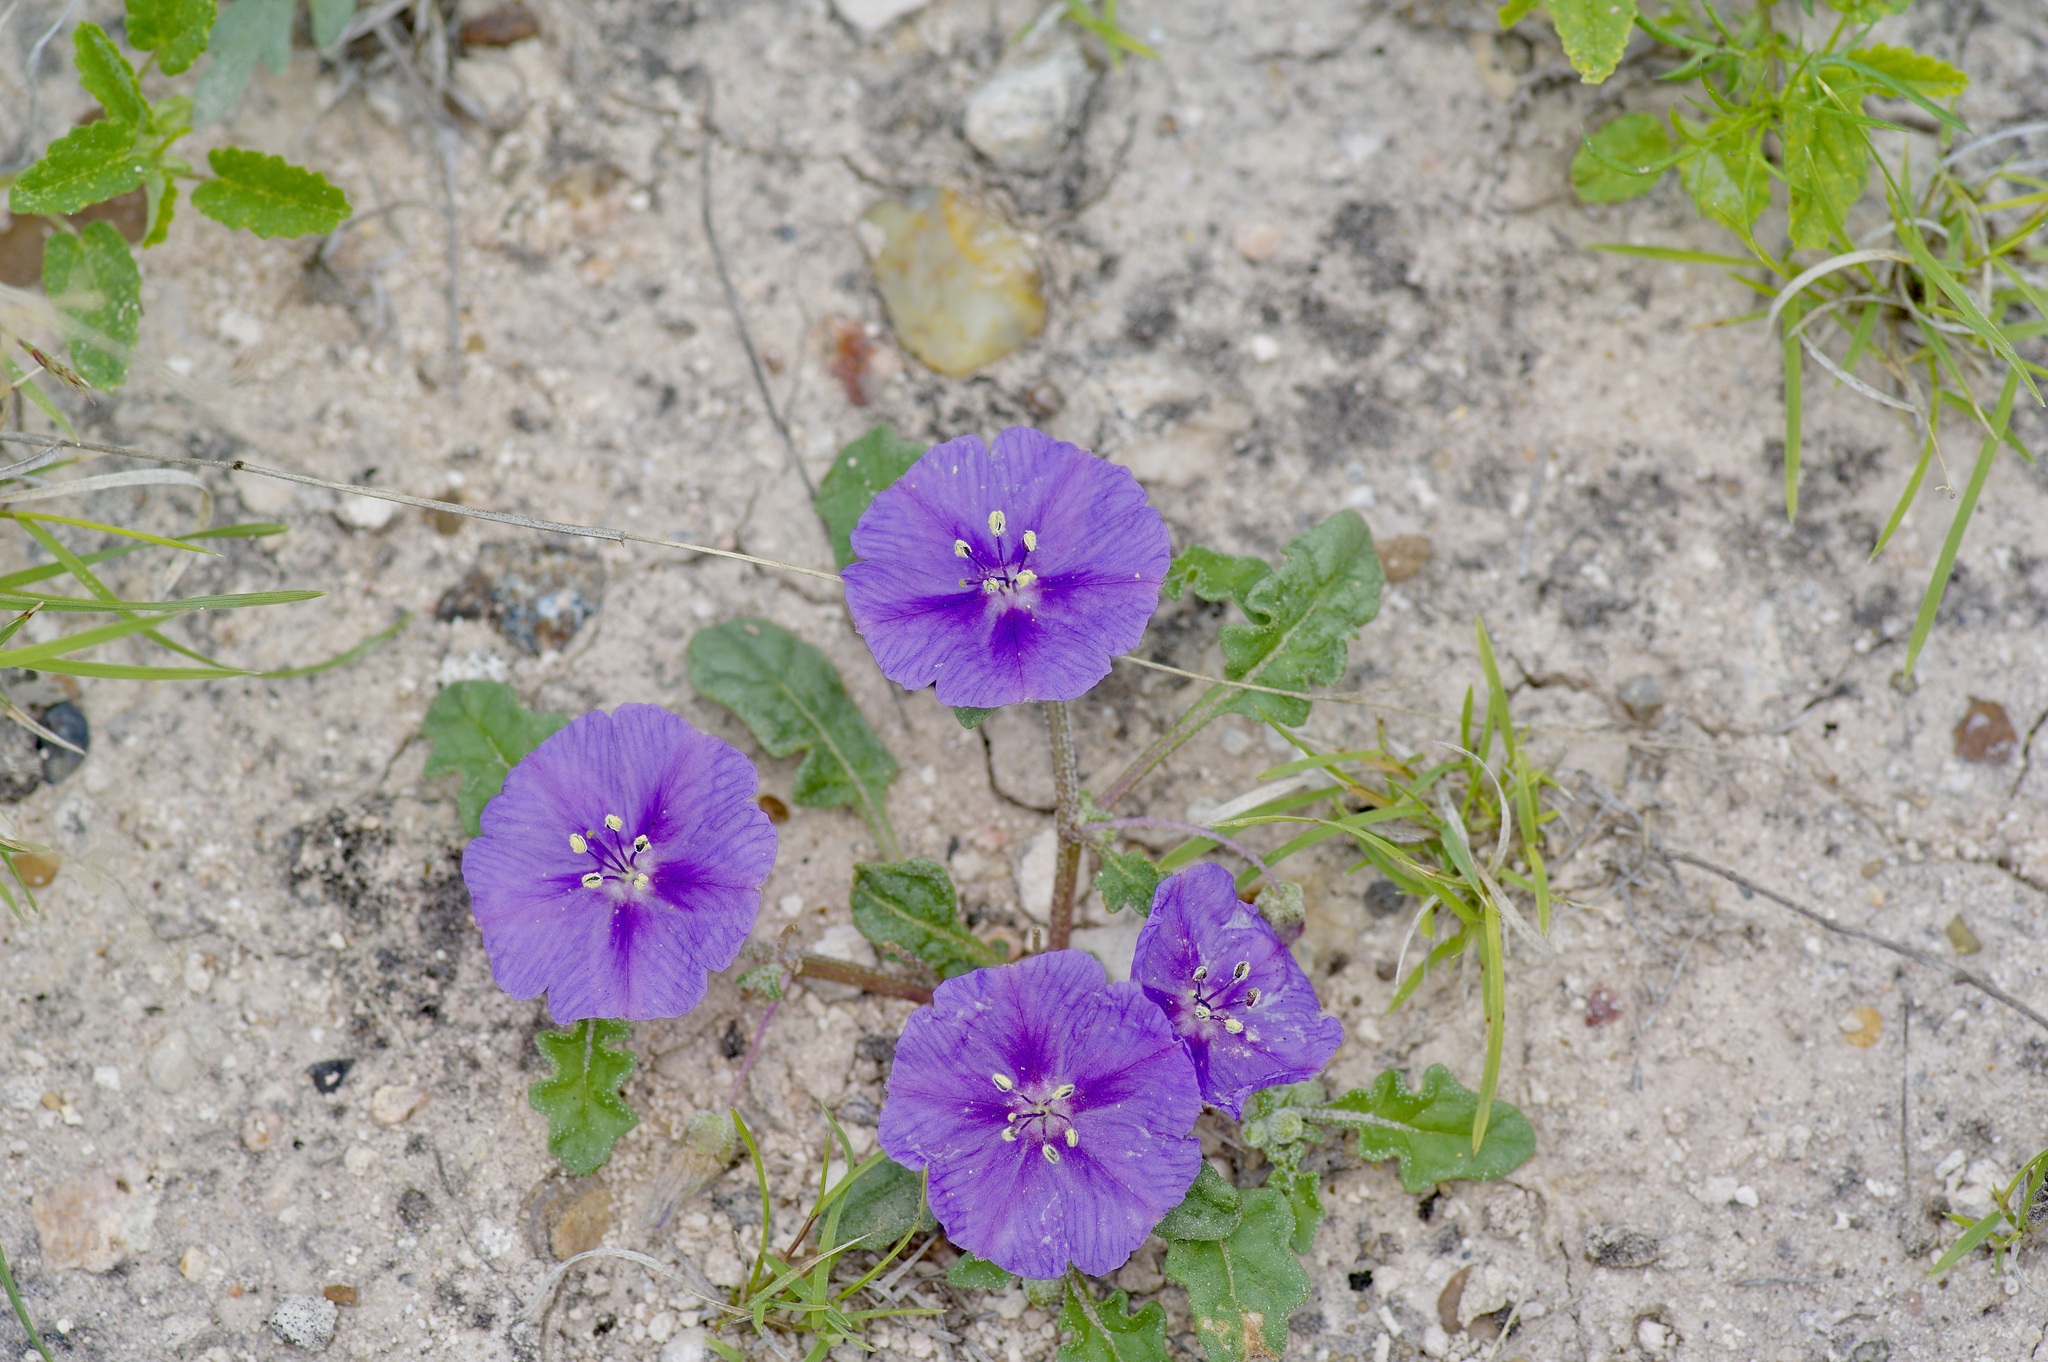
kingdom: Plantae
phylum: Tracheophyta
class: Magnoliopsida
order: Solanales
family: Solanaceae
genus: Quincula
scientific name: Quincula lobata
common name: Purple-ground-cherry
